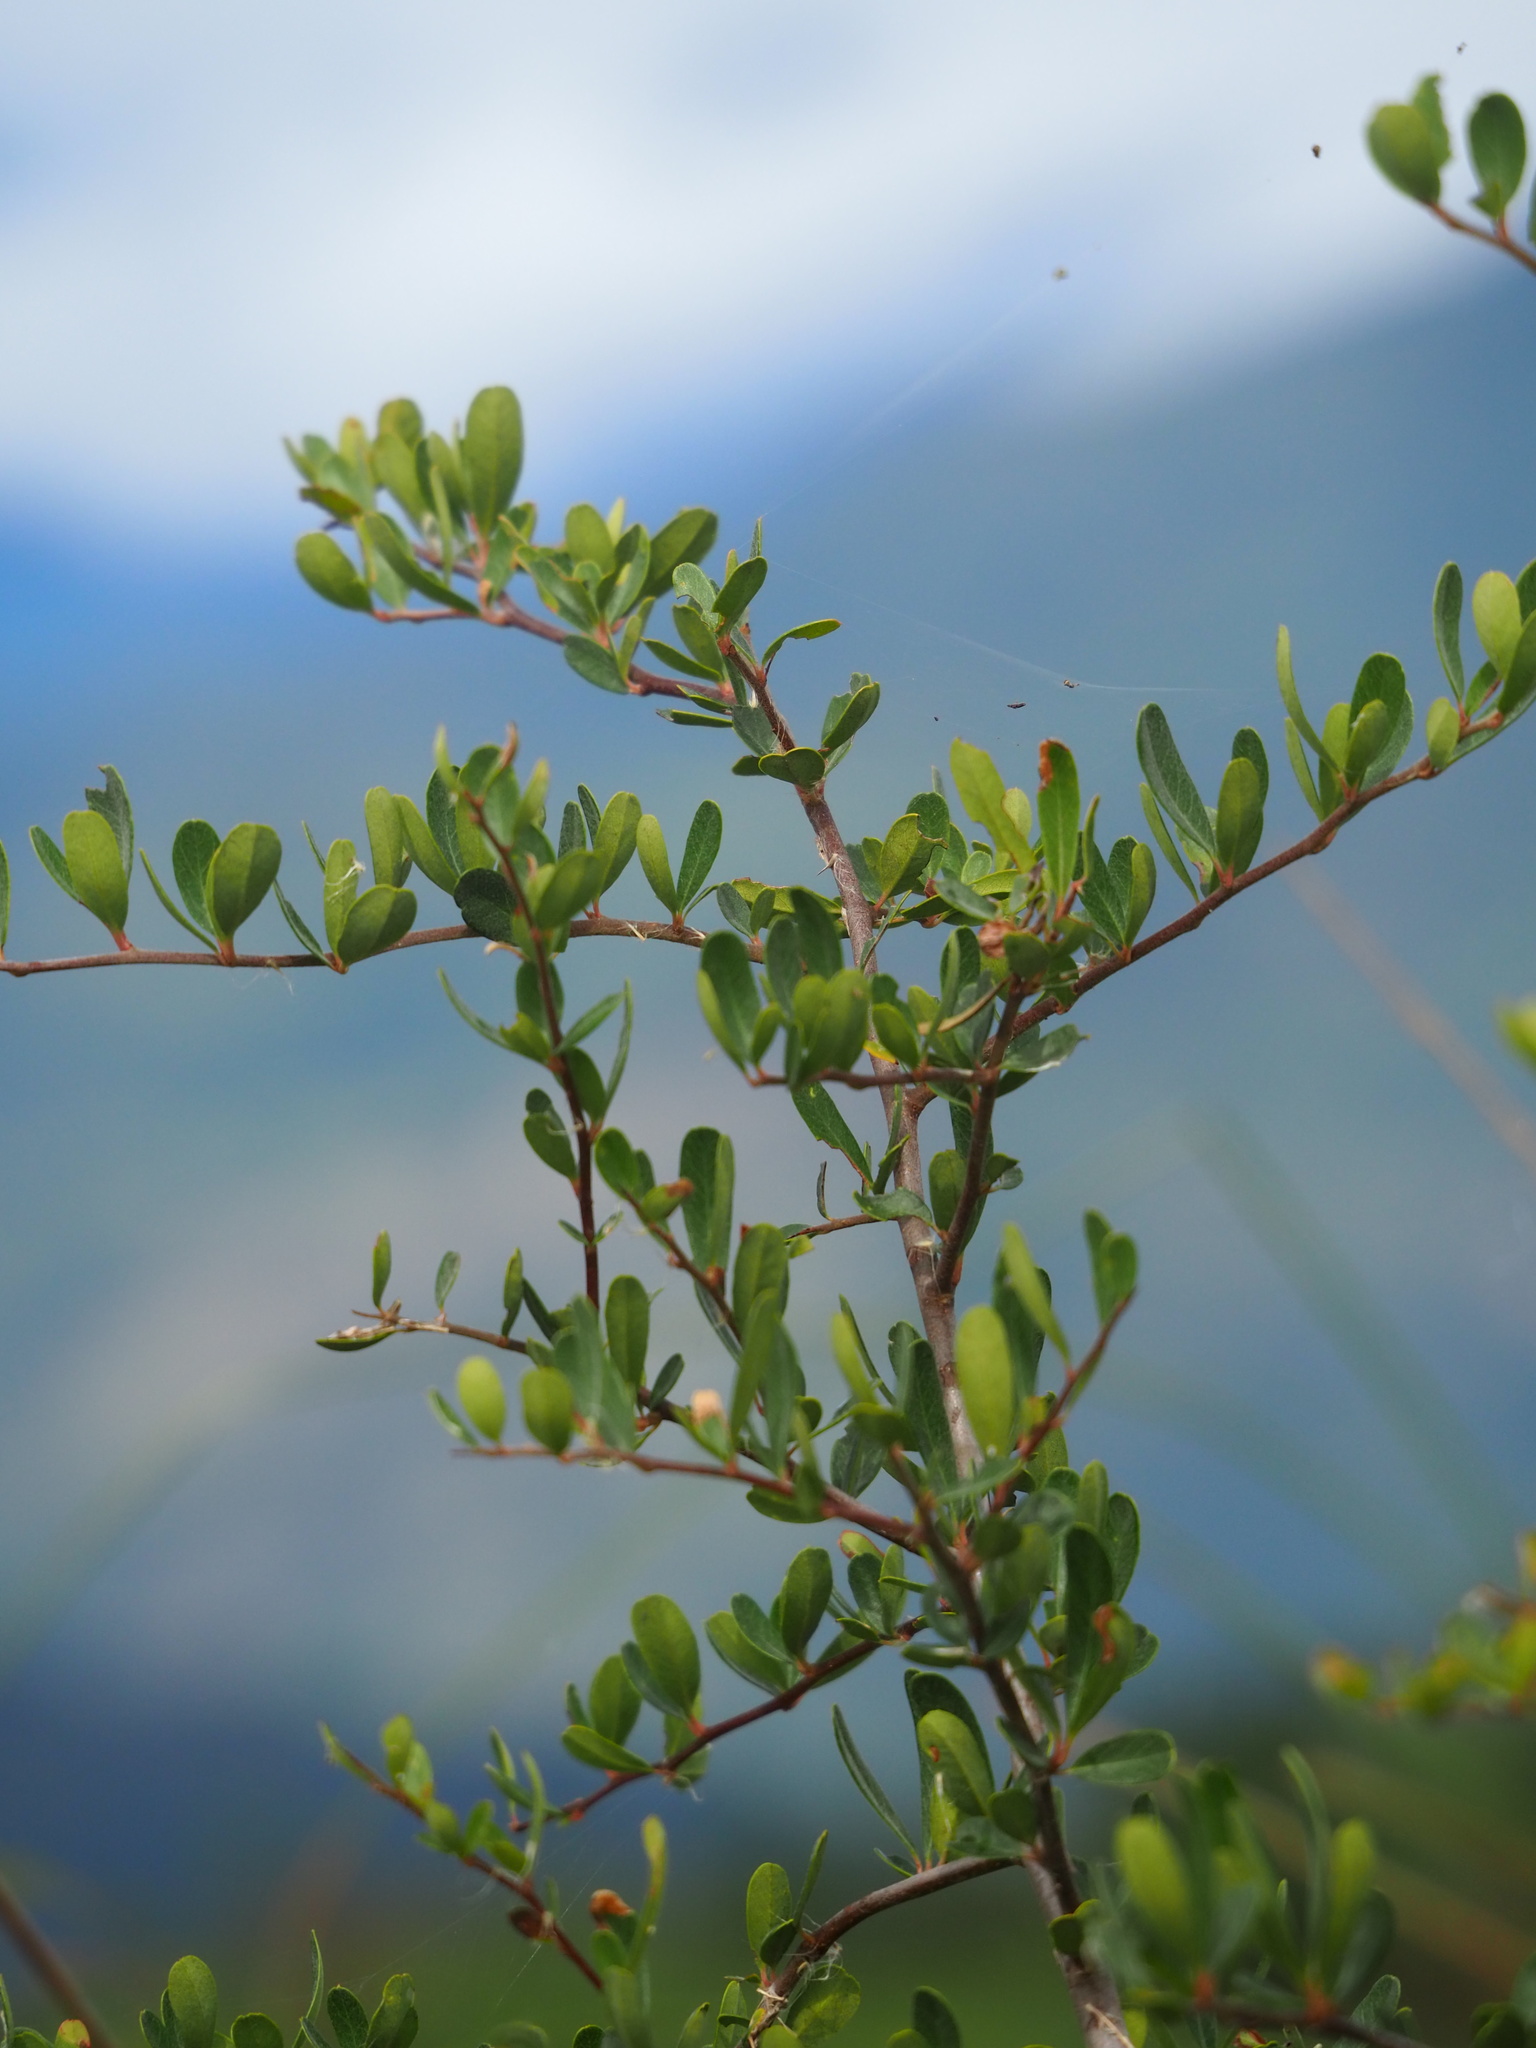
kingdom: Plantae
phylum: Tracheophyta
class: Magnoliopsida
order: Rosales
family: Rosaceae
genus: Pyracantha
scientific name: Pyracantha koidzumii
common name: Formosa firethorn
